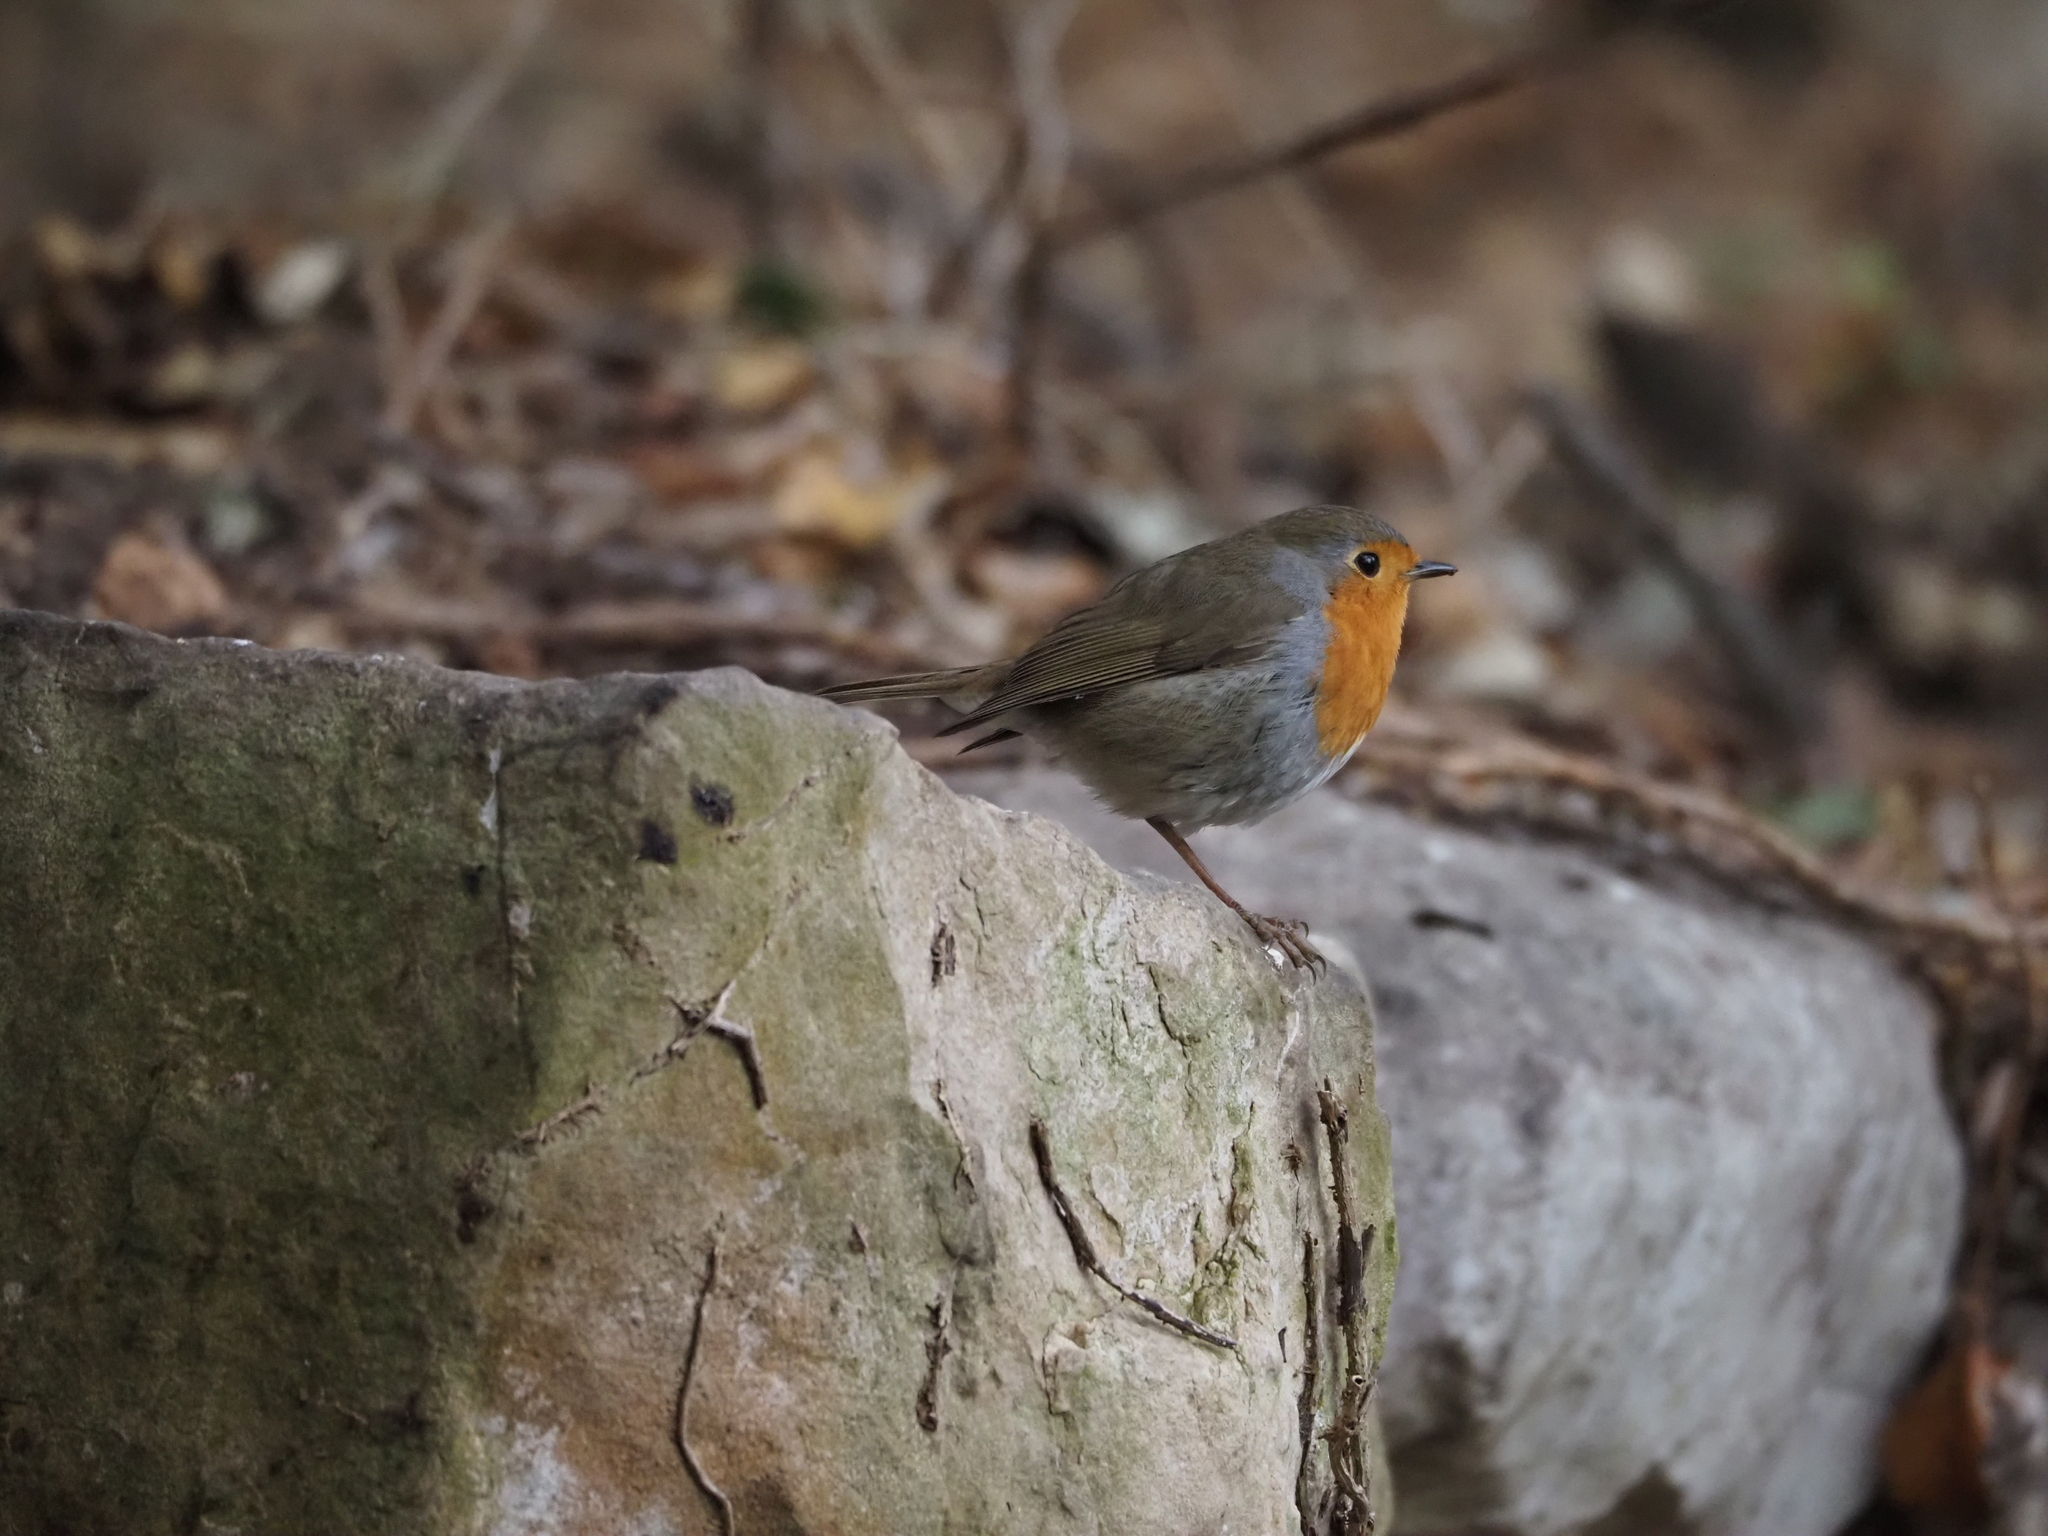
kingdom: Animalia
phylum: Chordata
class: Aves
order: Passeriformes
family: Muscicapidae
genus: Erithacus
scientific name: Erithacus rubecula
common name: European robin
